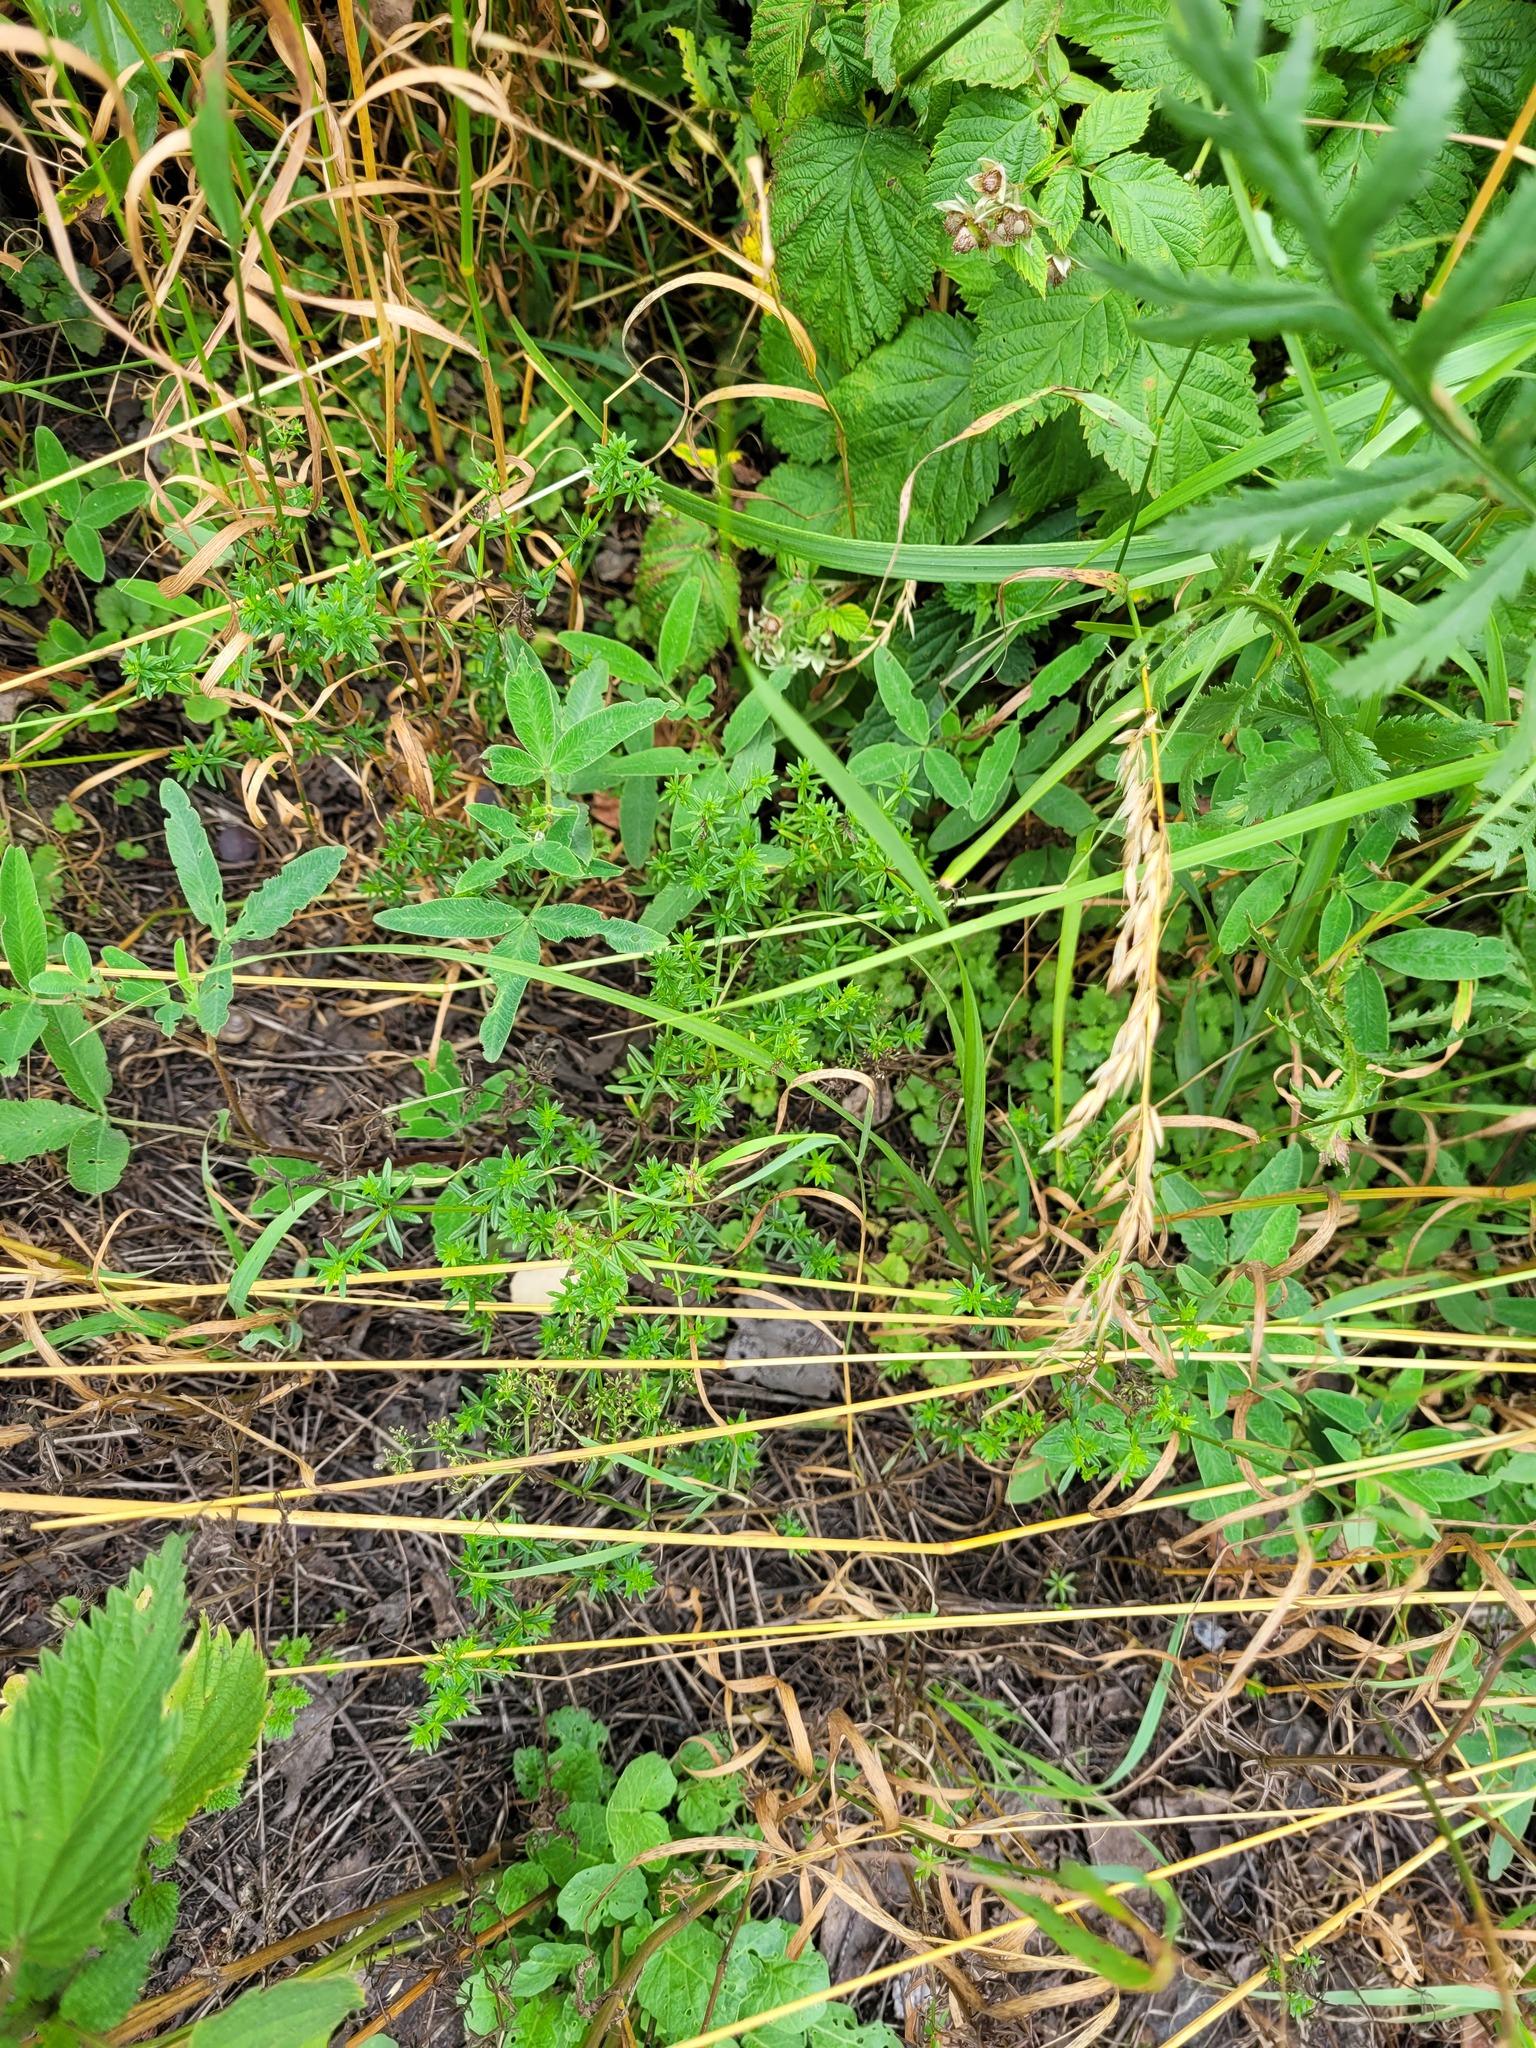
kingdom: Plantae
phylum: Tracheophyta
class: Magnoliopsida
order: Gentianales
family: Rubiaceae
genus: Galium
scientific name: Galium mollugo
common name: Hedge bedstraw
